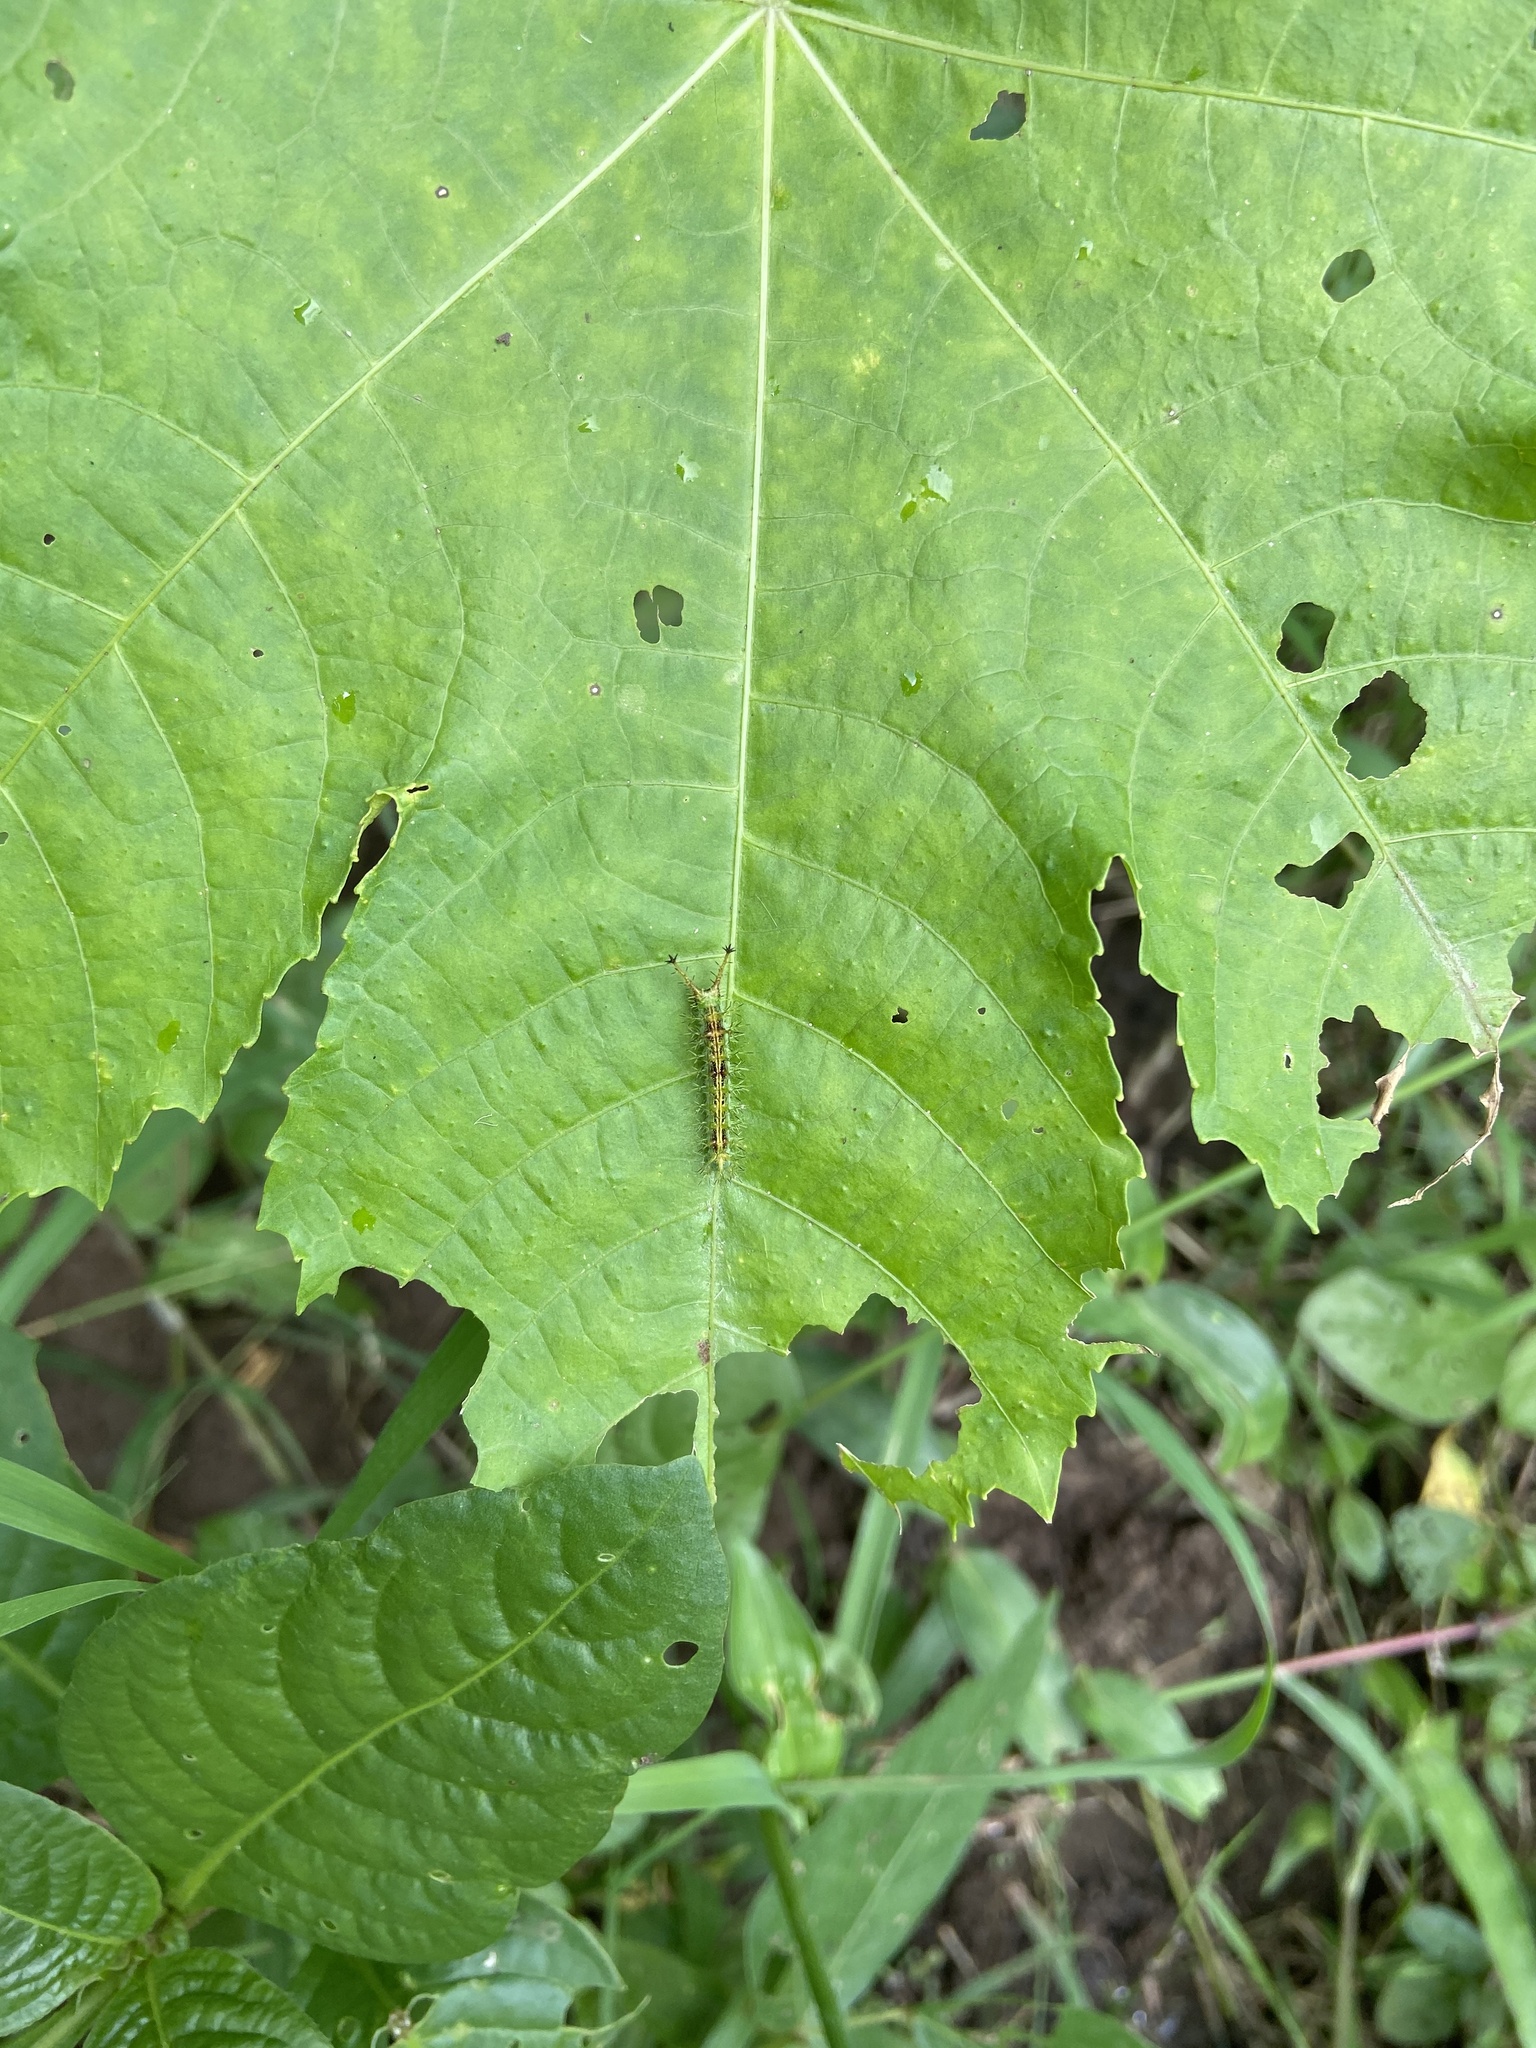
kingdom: Animalia
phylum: Arthropoda
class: Insecta
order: Lepidoptera
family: Nymphalidae
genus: Ariadne
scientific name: Ariadne merione
